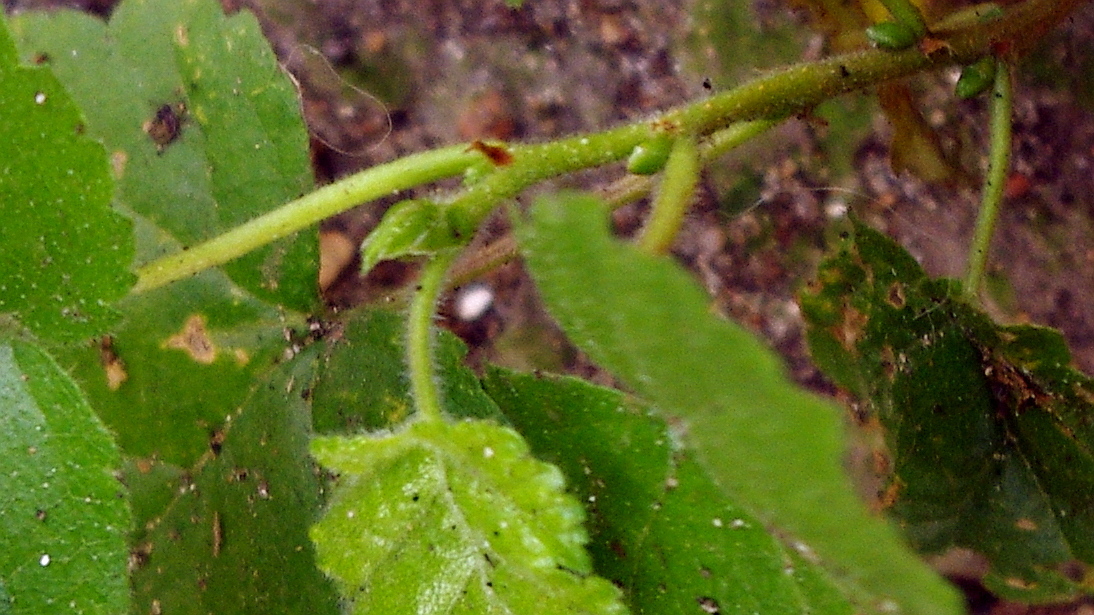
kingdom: Plantae
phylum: Tracheophyta
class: Magnoliopsida
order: Fagales
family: Betulaceae
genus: Betula
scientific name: Betula pubescens
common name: Downy birch
